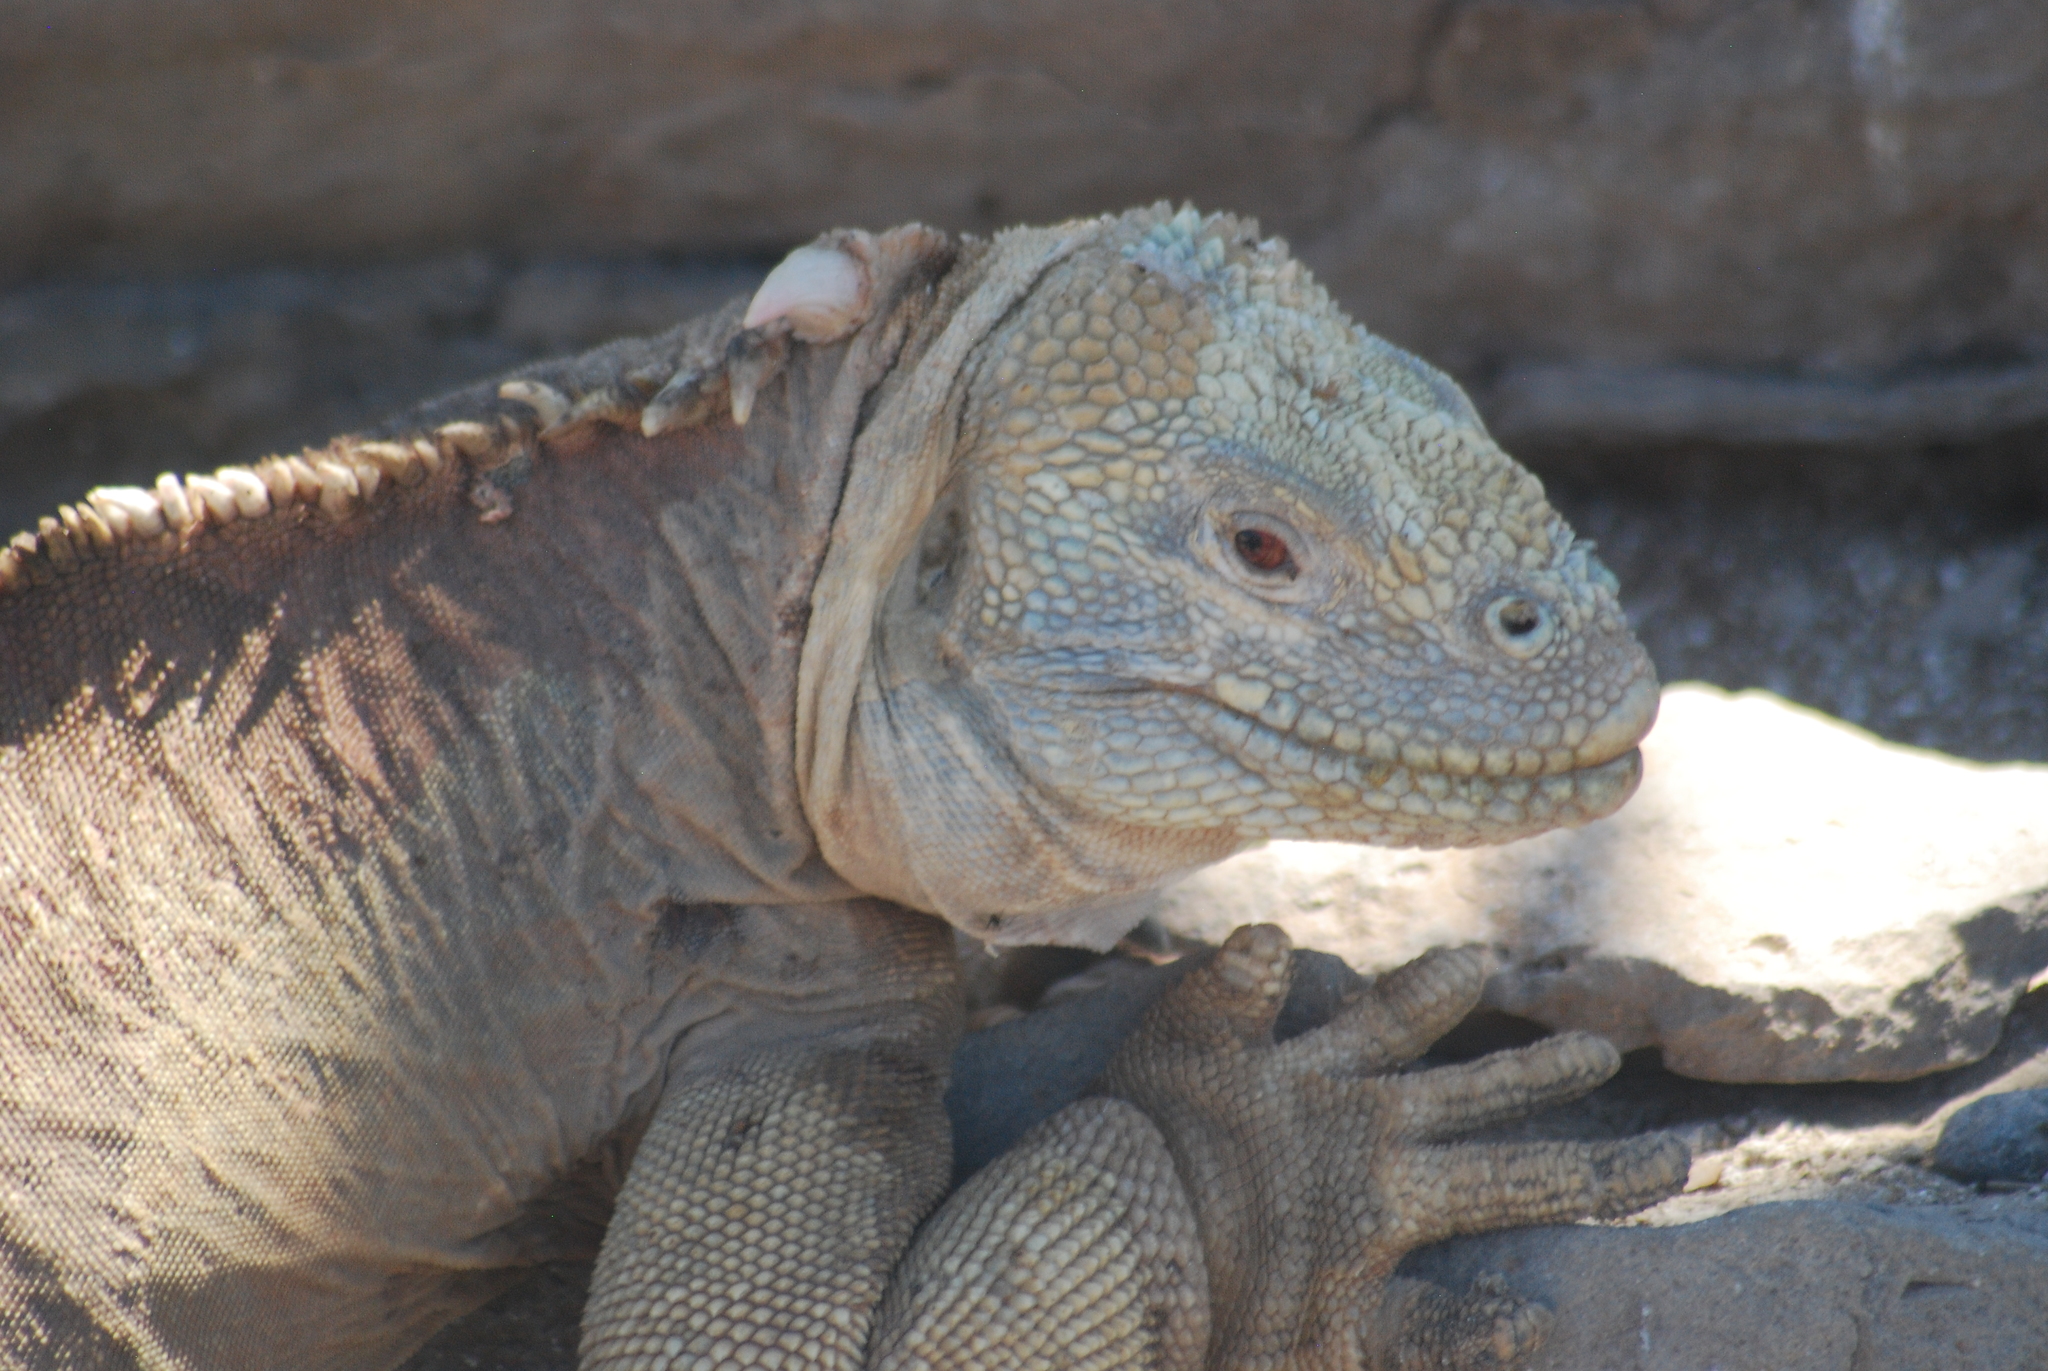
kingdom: Animalia
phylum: Chordata
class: Squamata
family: Iguanidae
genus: Conolophus
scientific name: Conolophus pallidus
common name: Santa fe land iguana
